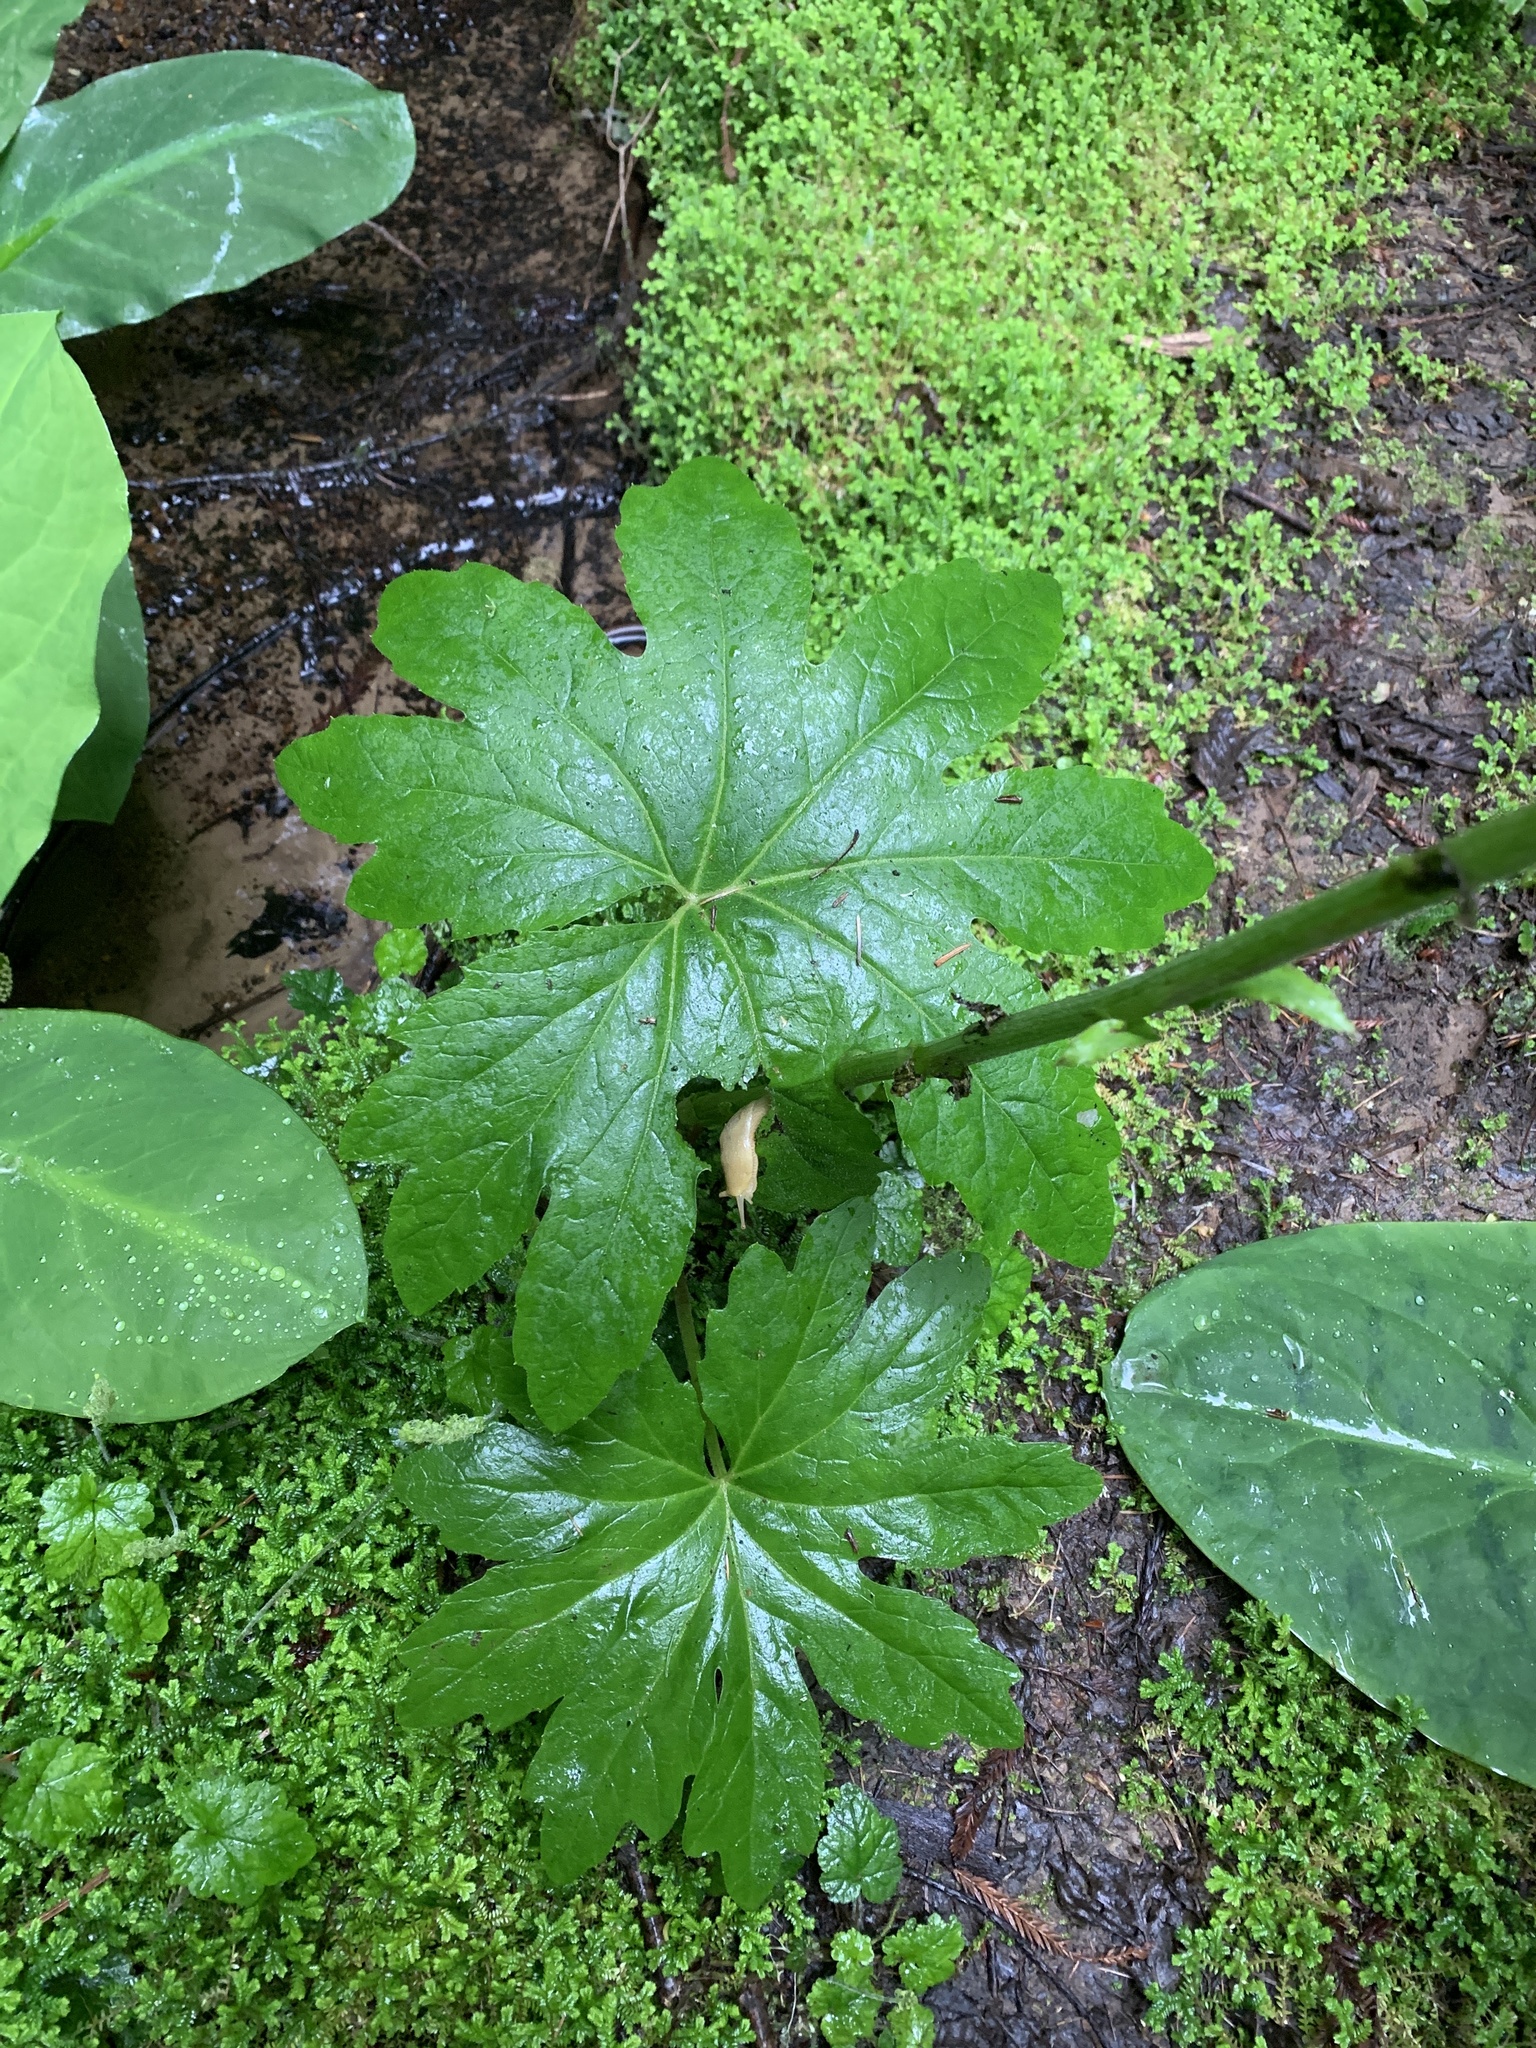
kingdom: Plantae
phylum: Tracheophyta
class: Magnoliopsida
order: Asterales
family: Asteraceae
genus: Petasites
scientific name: Petasites frigidus
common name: Arctic butterbur
